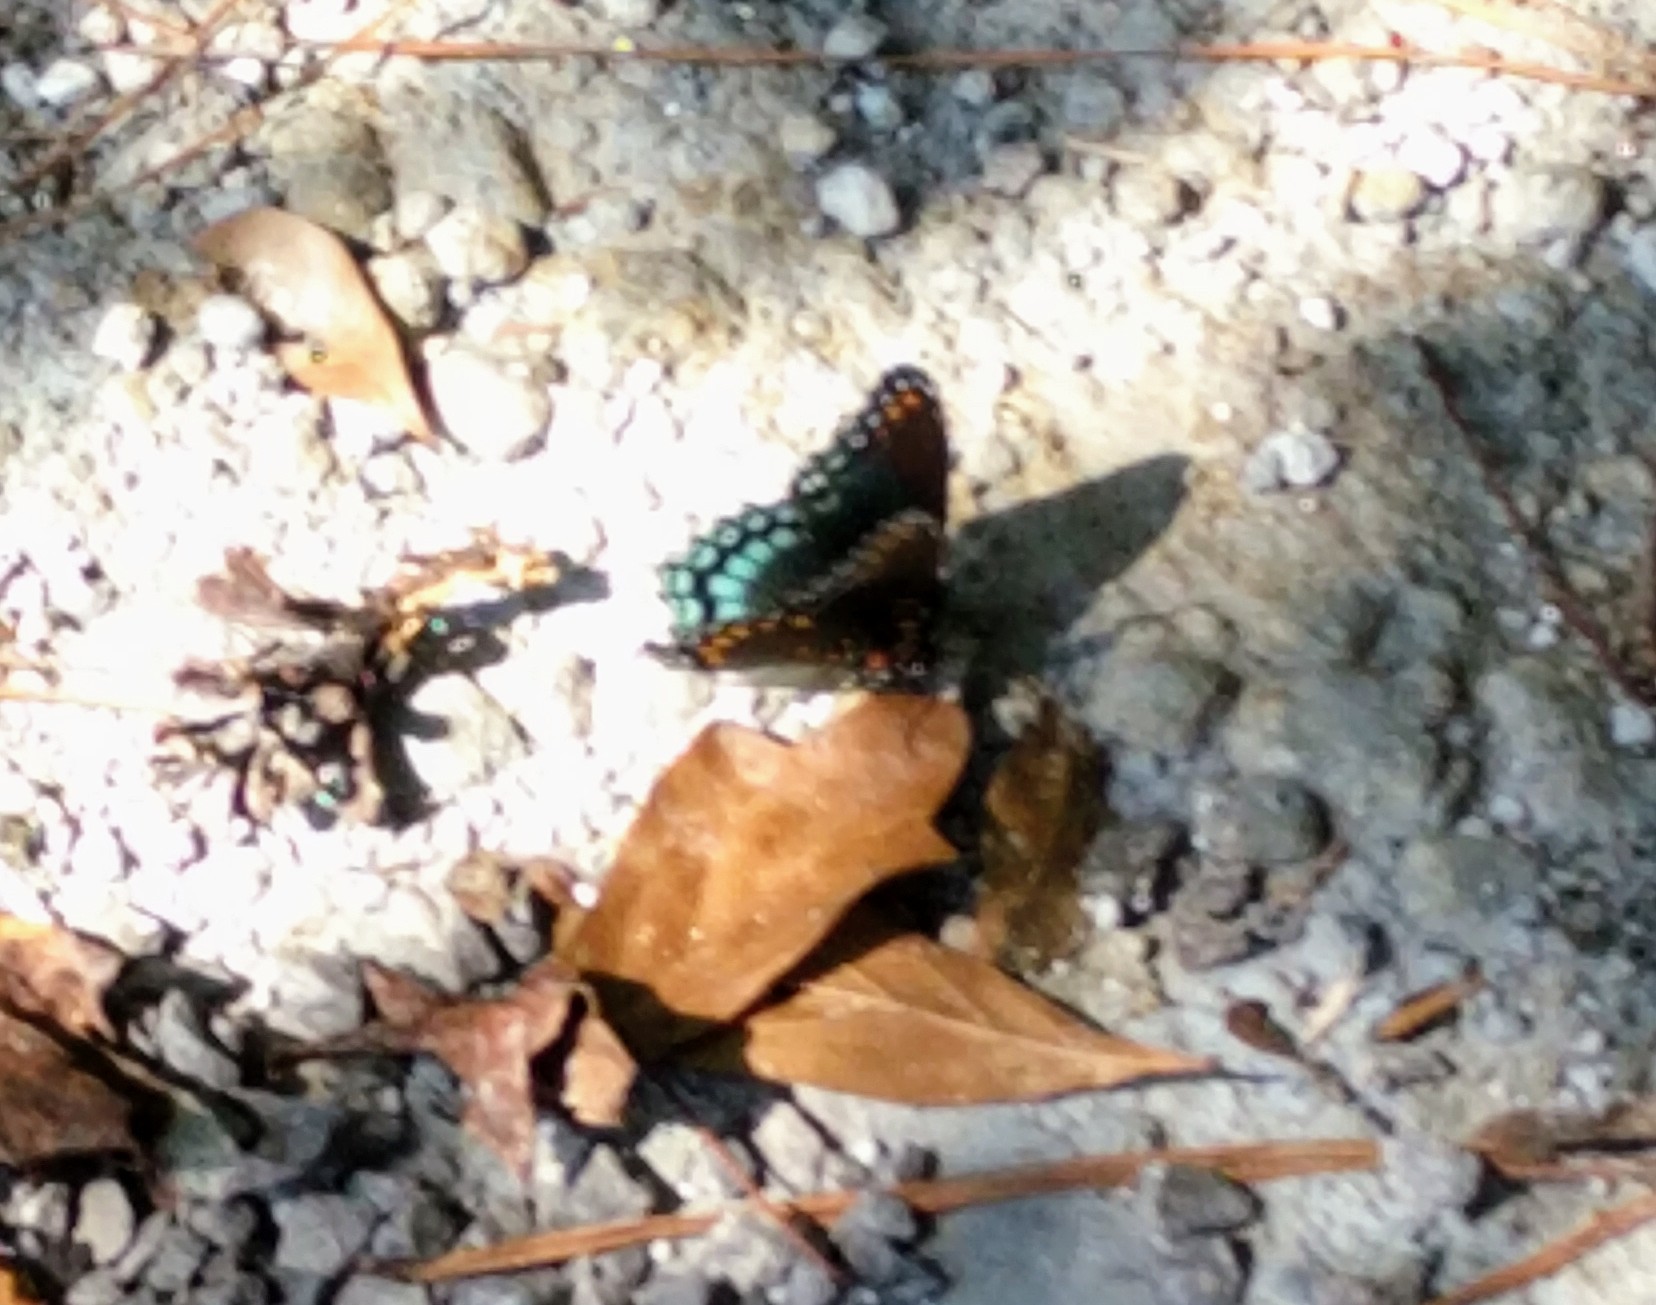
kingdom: Animalia
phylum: Arthropoda
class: Insecta
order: Lepidoptera
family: Nymphalidae
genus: Limenitis
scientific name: Limenitis arthemis
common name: Red-spotted admiral
